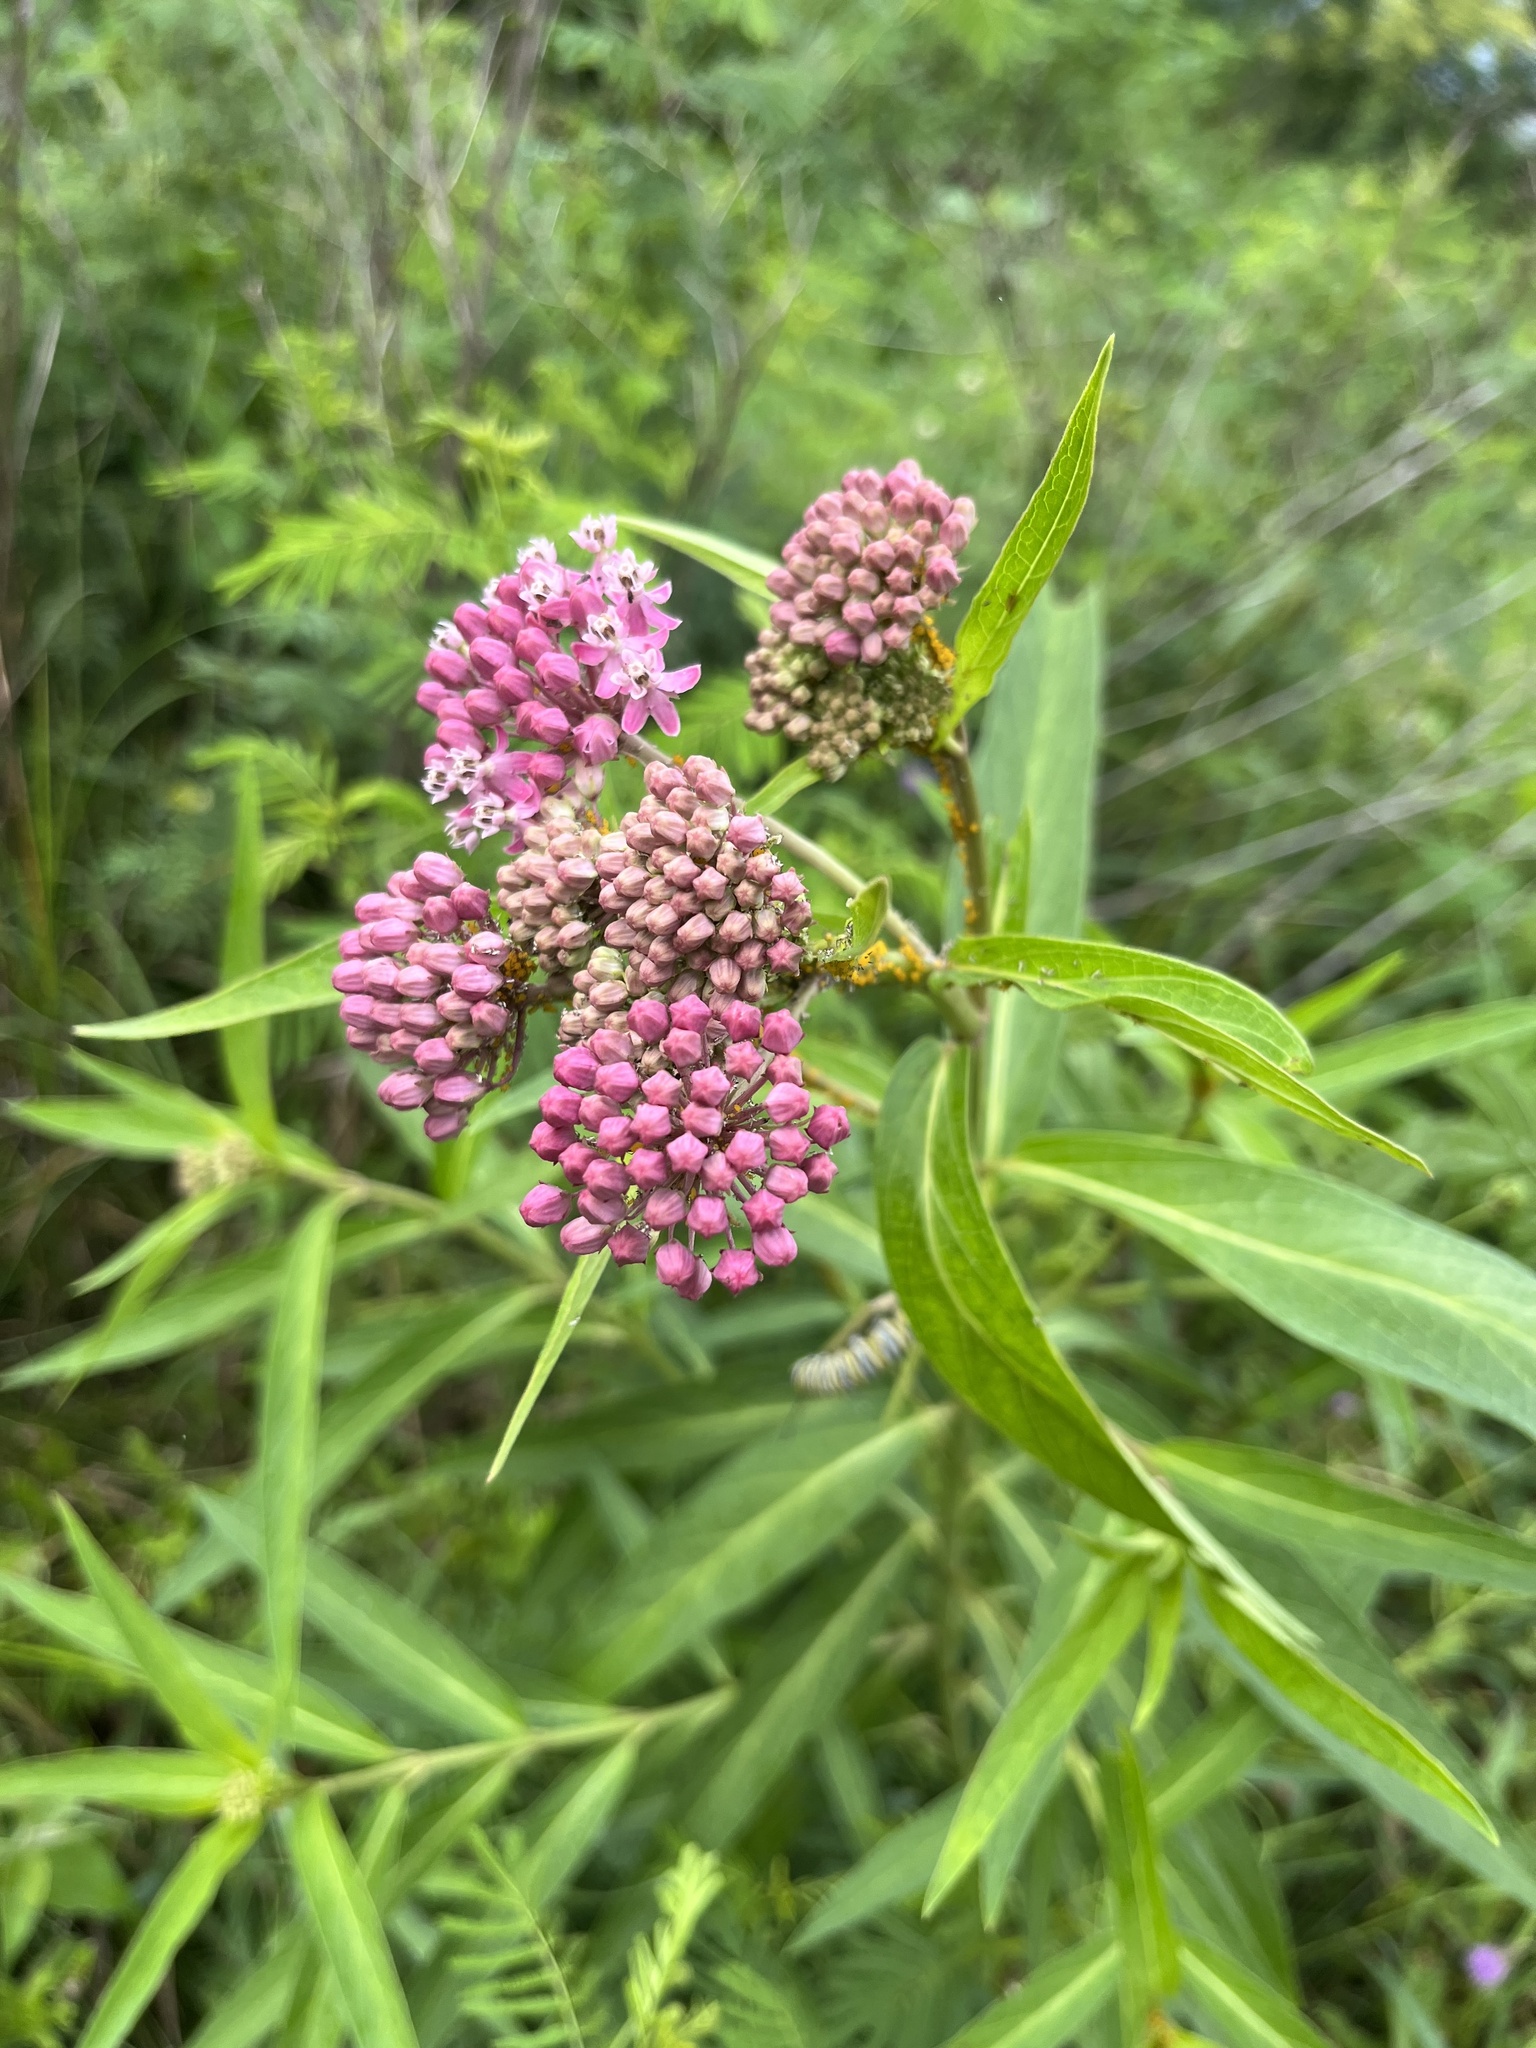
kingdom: Plantae
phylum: Tracheophyta
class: Magnoliopsida
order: Gentianales
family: Apocynaceae
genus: Asclepias
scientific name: Asclepias incarnata
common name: Swamp milkweed
